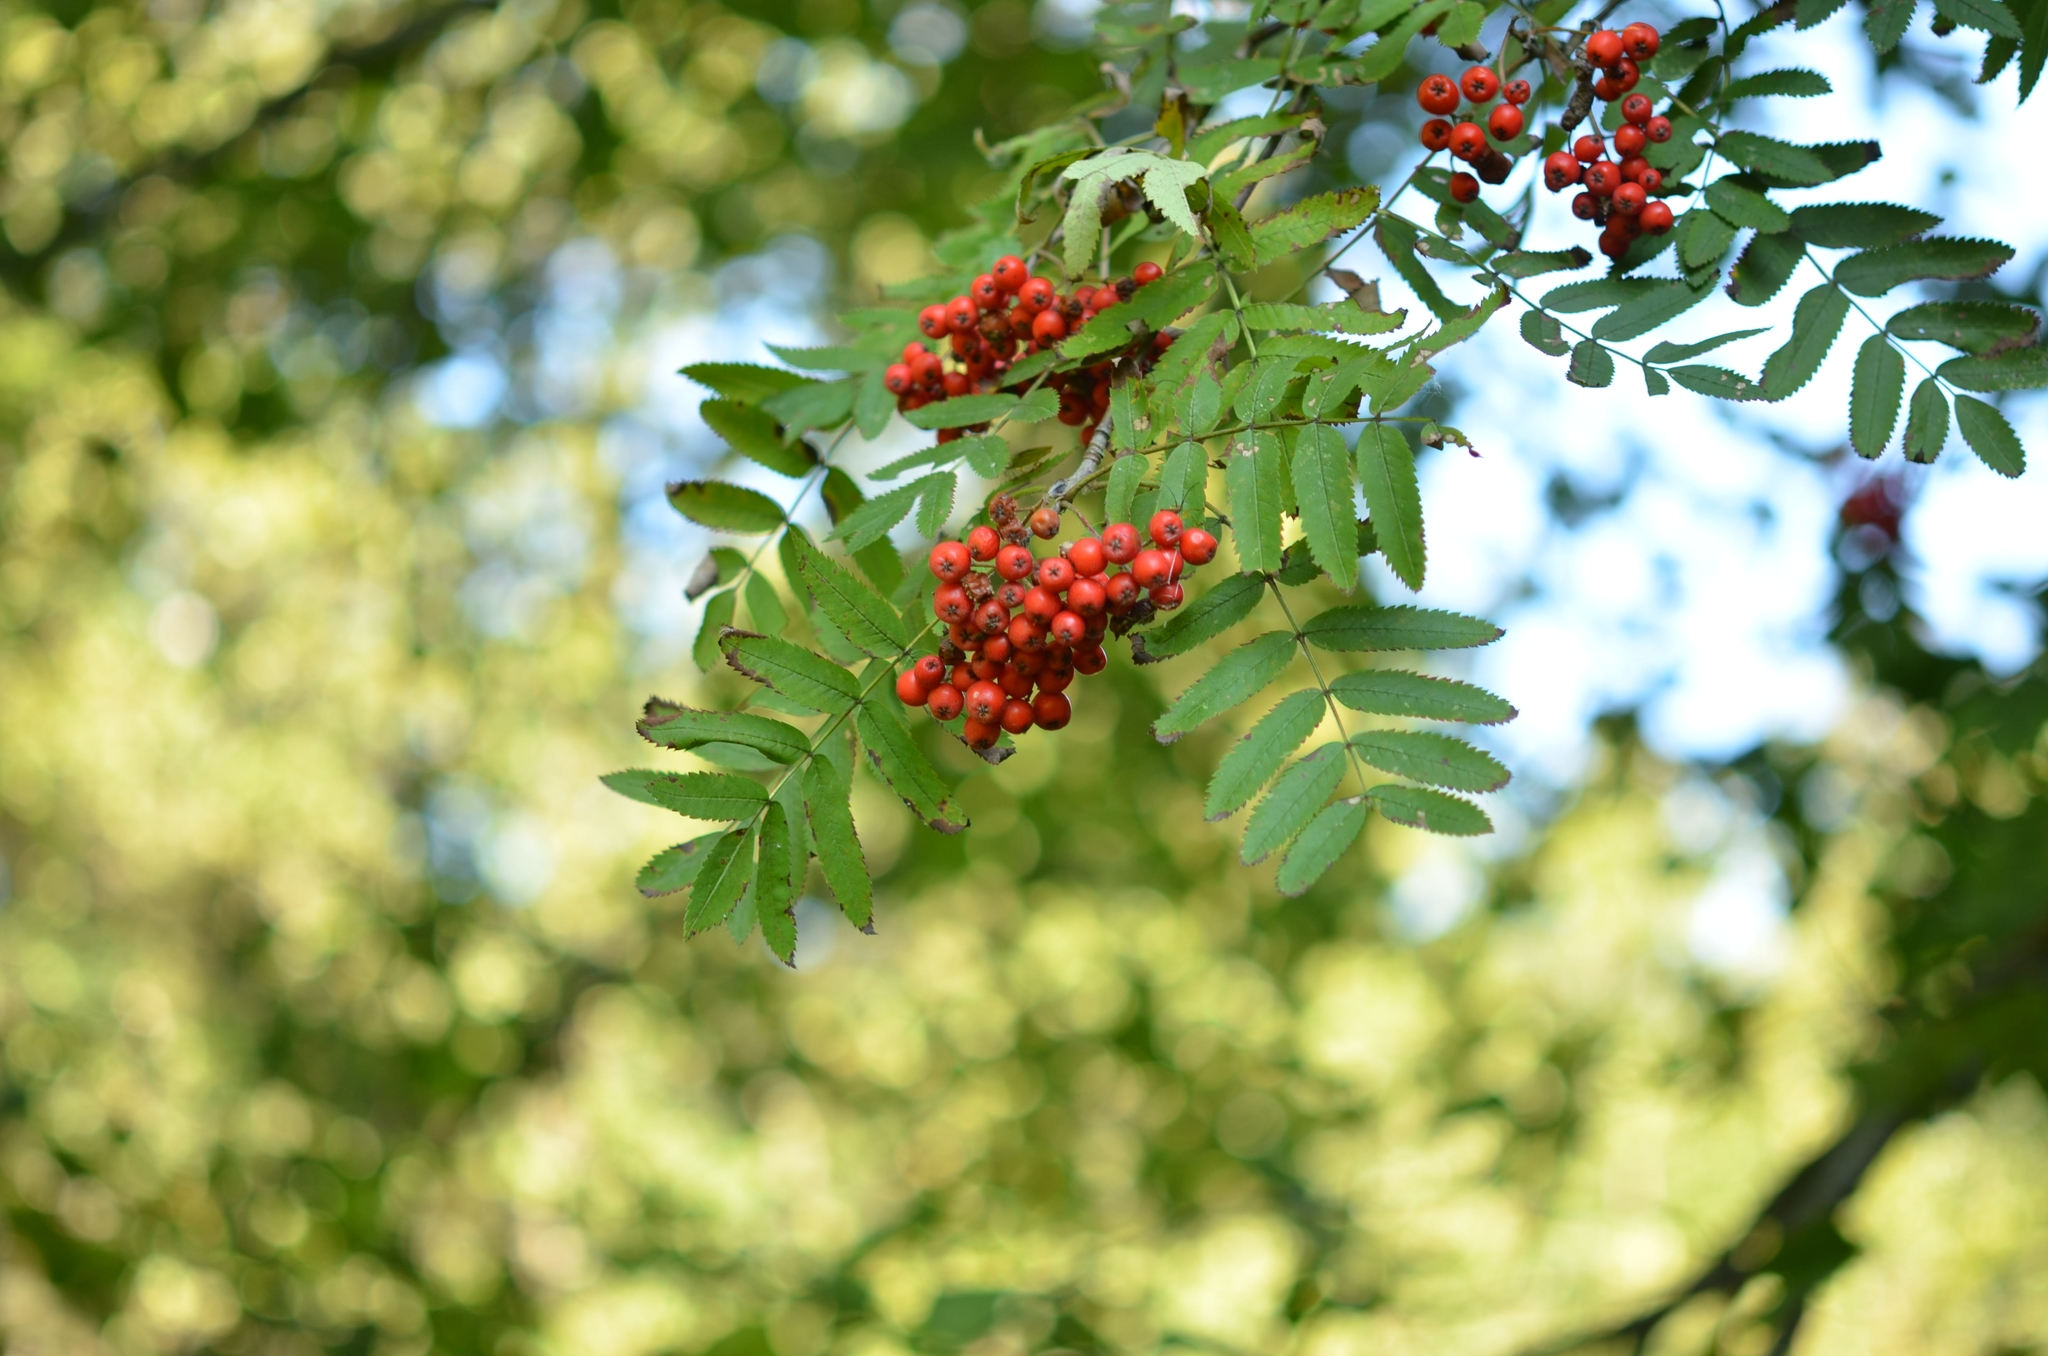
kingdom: Plantae
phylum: Tracheophyta
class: Magnoliopsida
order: Rosales
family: Rosaceae
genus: Sorbus
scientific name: Sorbus aucuparia
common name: Rowan
